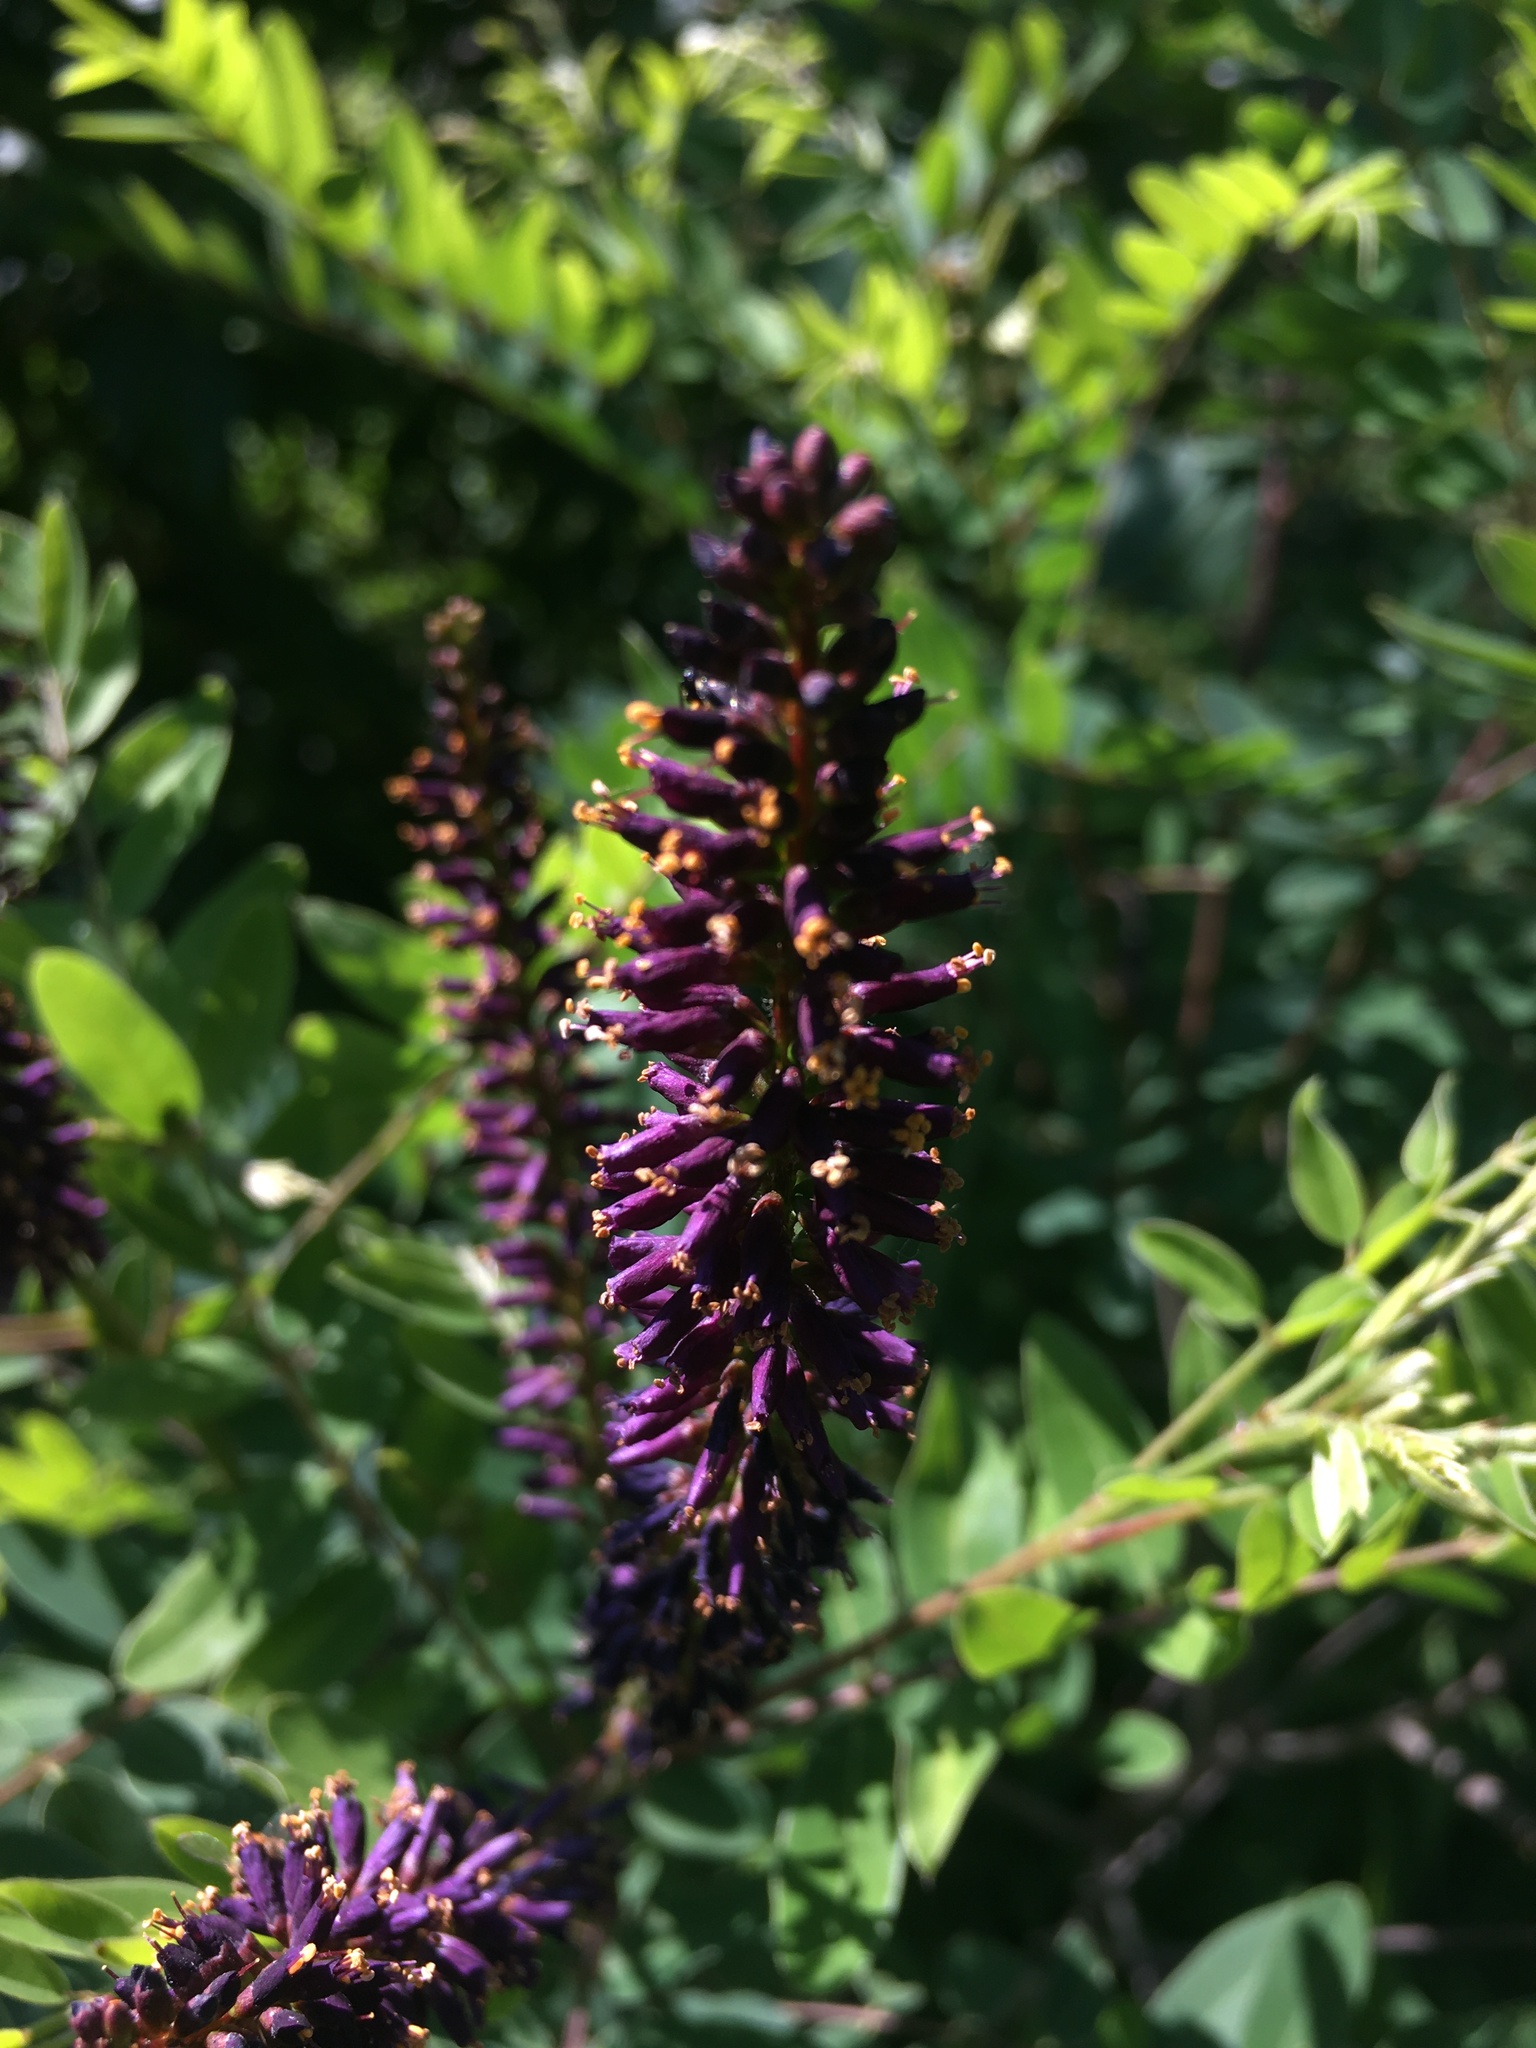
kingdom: Plantae
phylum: Tracheophyta
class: Magnoliopsida
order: Fabales
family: Fabaceae
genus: Amorpha
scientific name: Amorpha fruticosa
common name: False indigo
